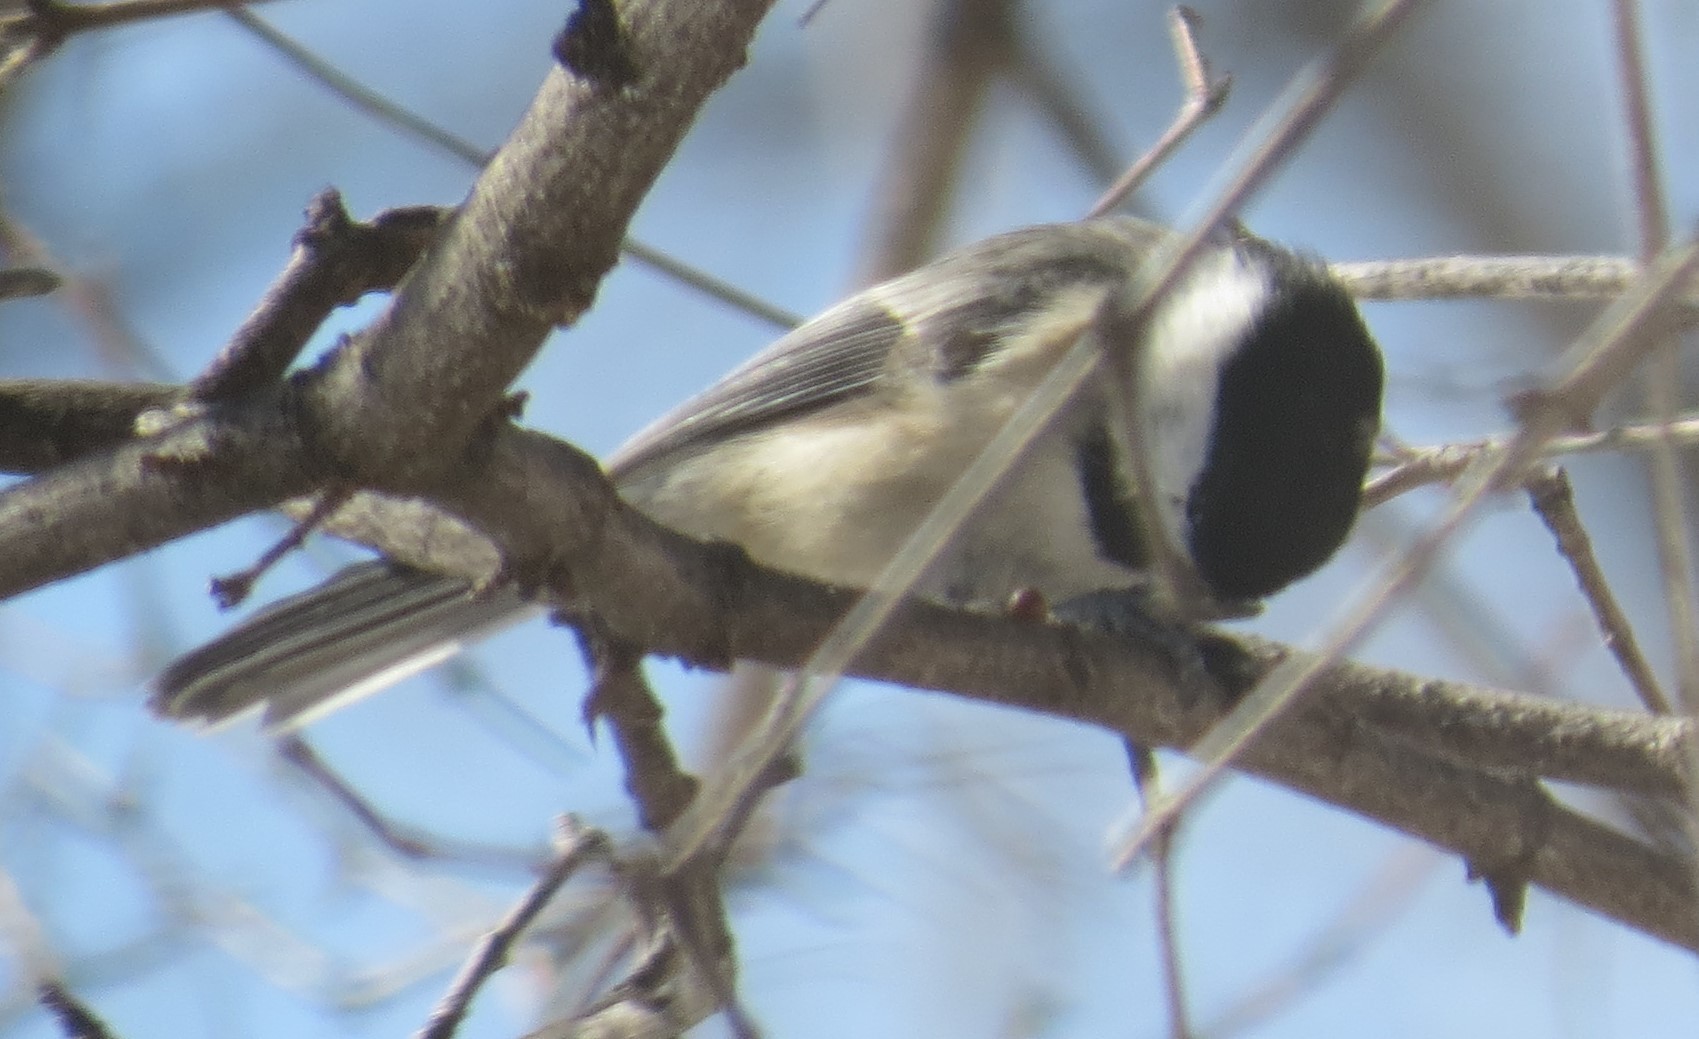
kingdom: Animalia
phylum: Chordata
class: Aves
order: Passeriformes
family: Paridae
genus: Poecile
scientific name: Poecile atricapillus
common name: Black-capped chickadee
